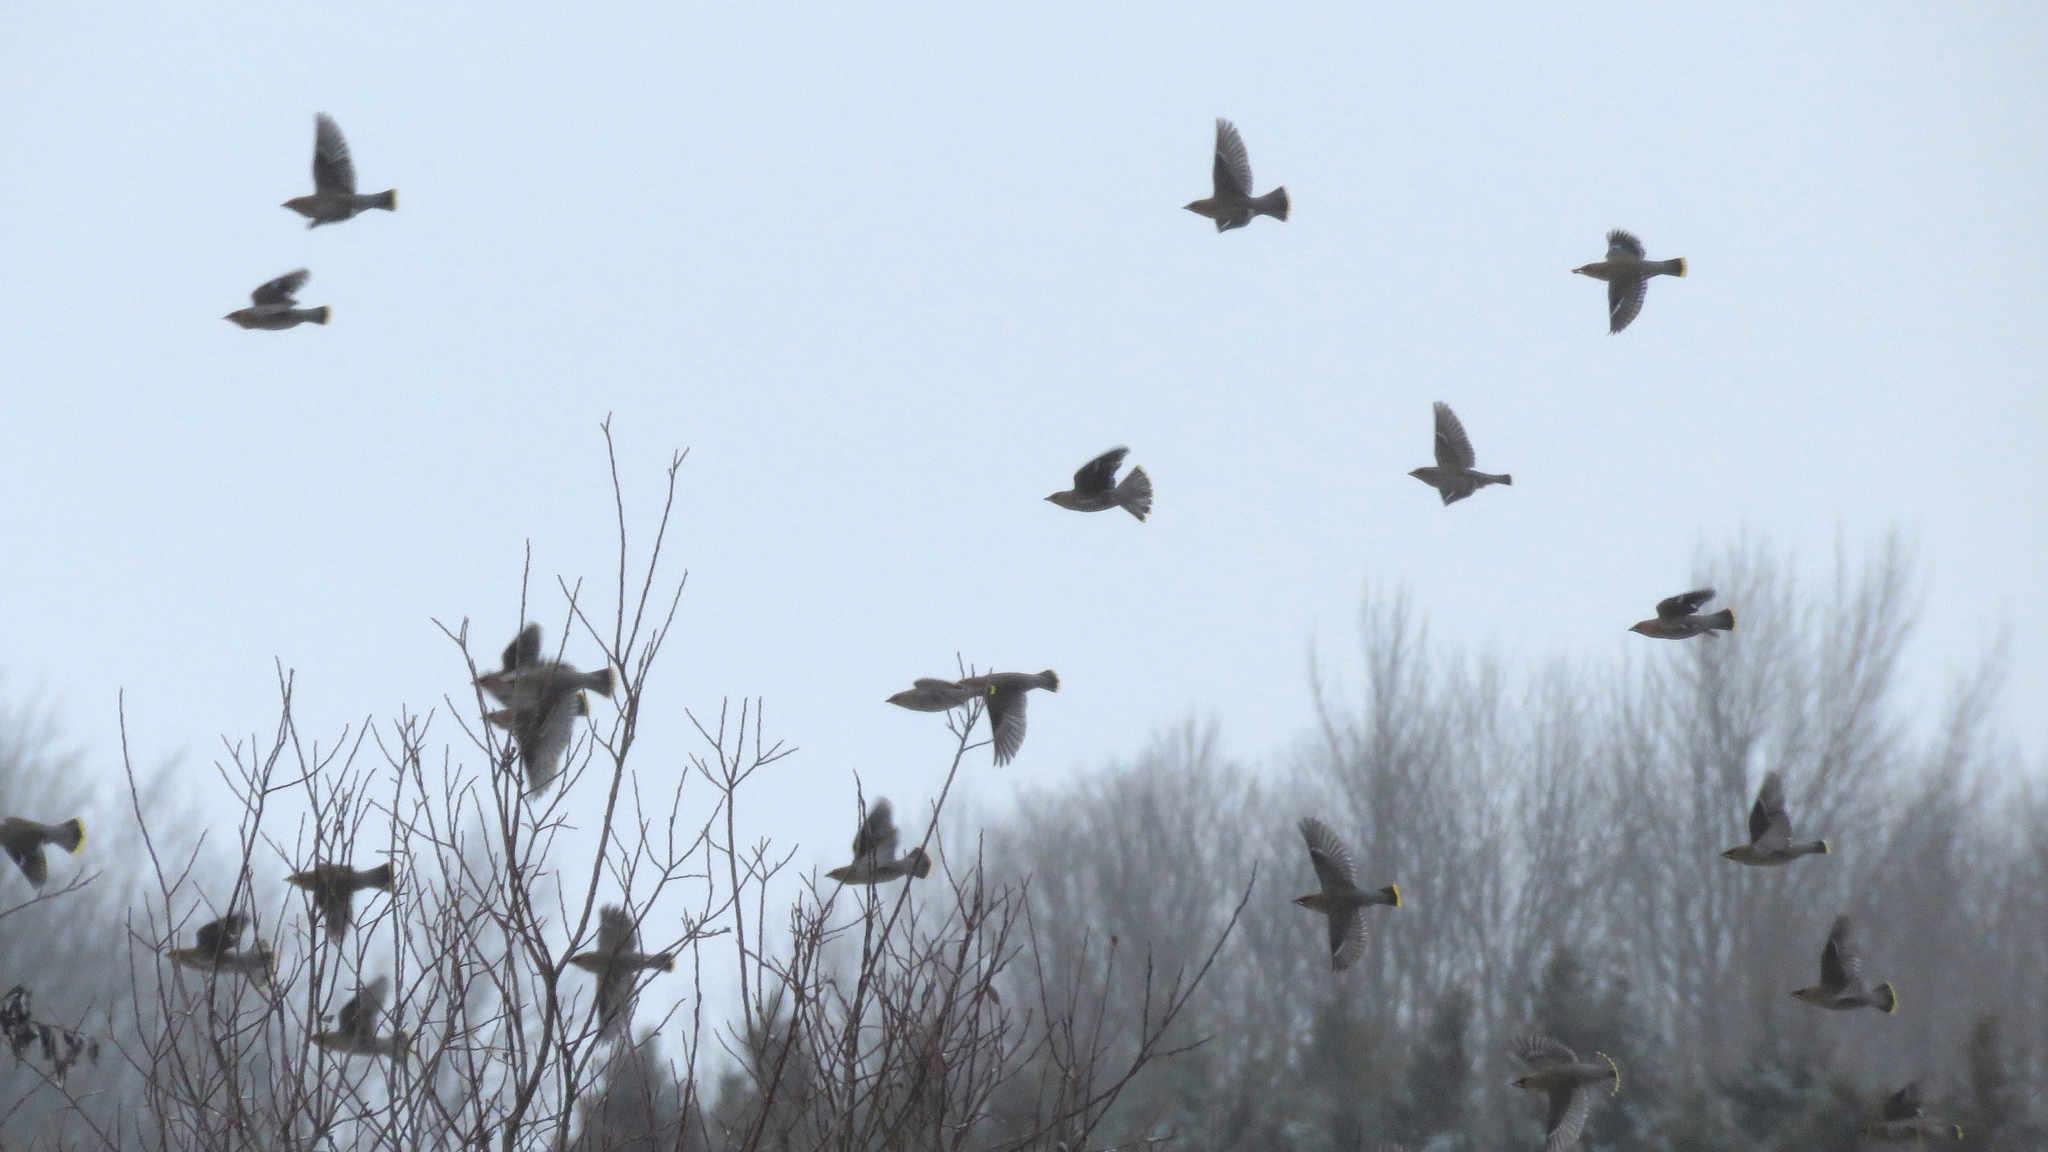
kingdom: Animalia
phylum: Chordata
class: Aves
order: Passeriformes
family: Bombycillidae
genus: Bombycilla
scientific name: Bombycilla garrulus
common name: Bohemian waxwing
